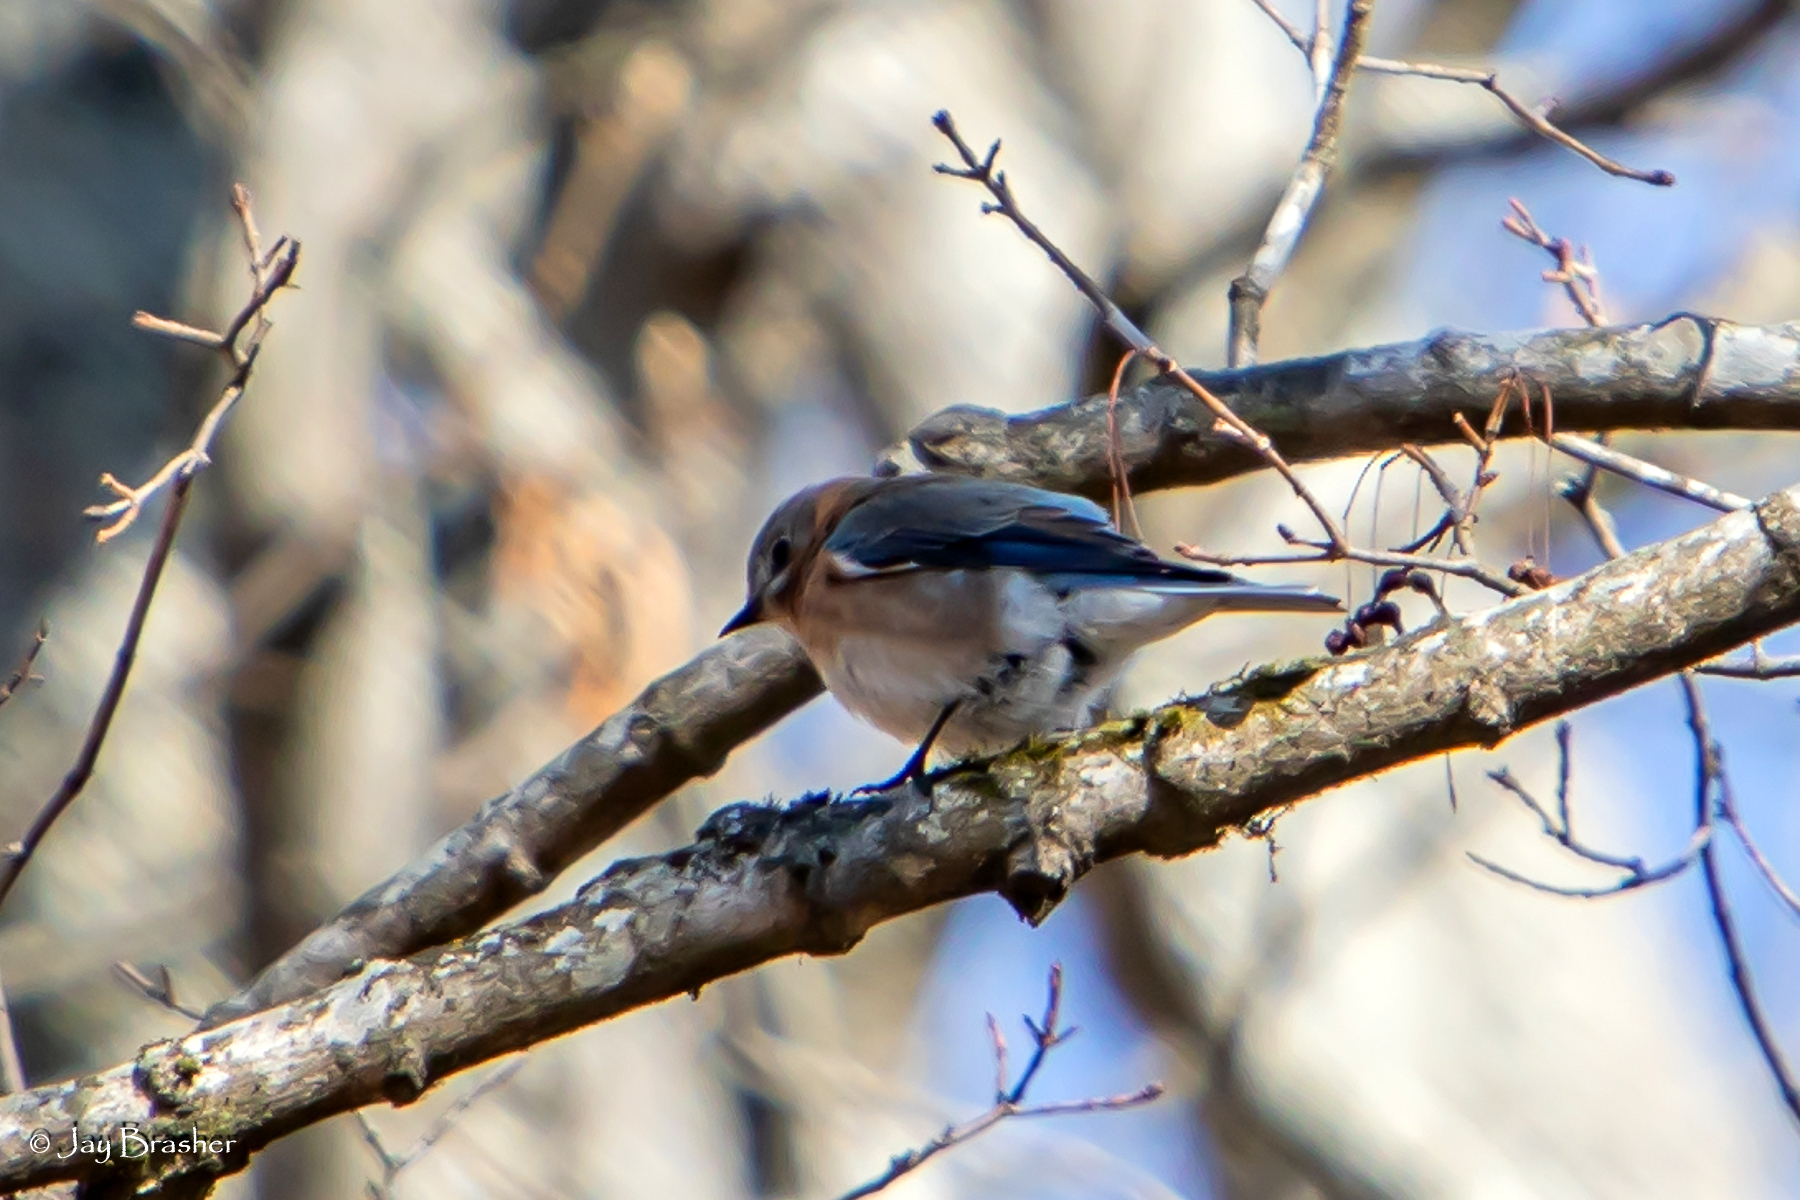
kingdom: Animalia
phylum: Chordata
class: Aves
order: Passeriformes
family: Turdidae
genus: Sialia
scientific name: Sialia sialis
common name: Eastern bluebird
